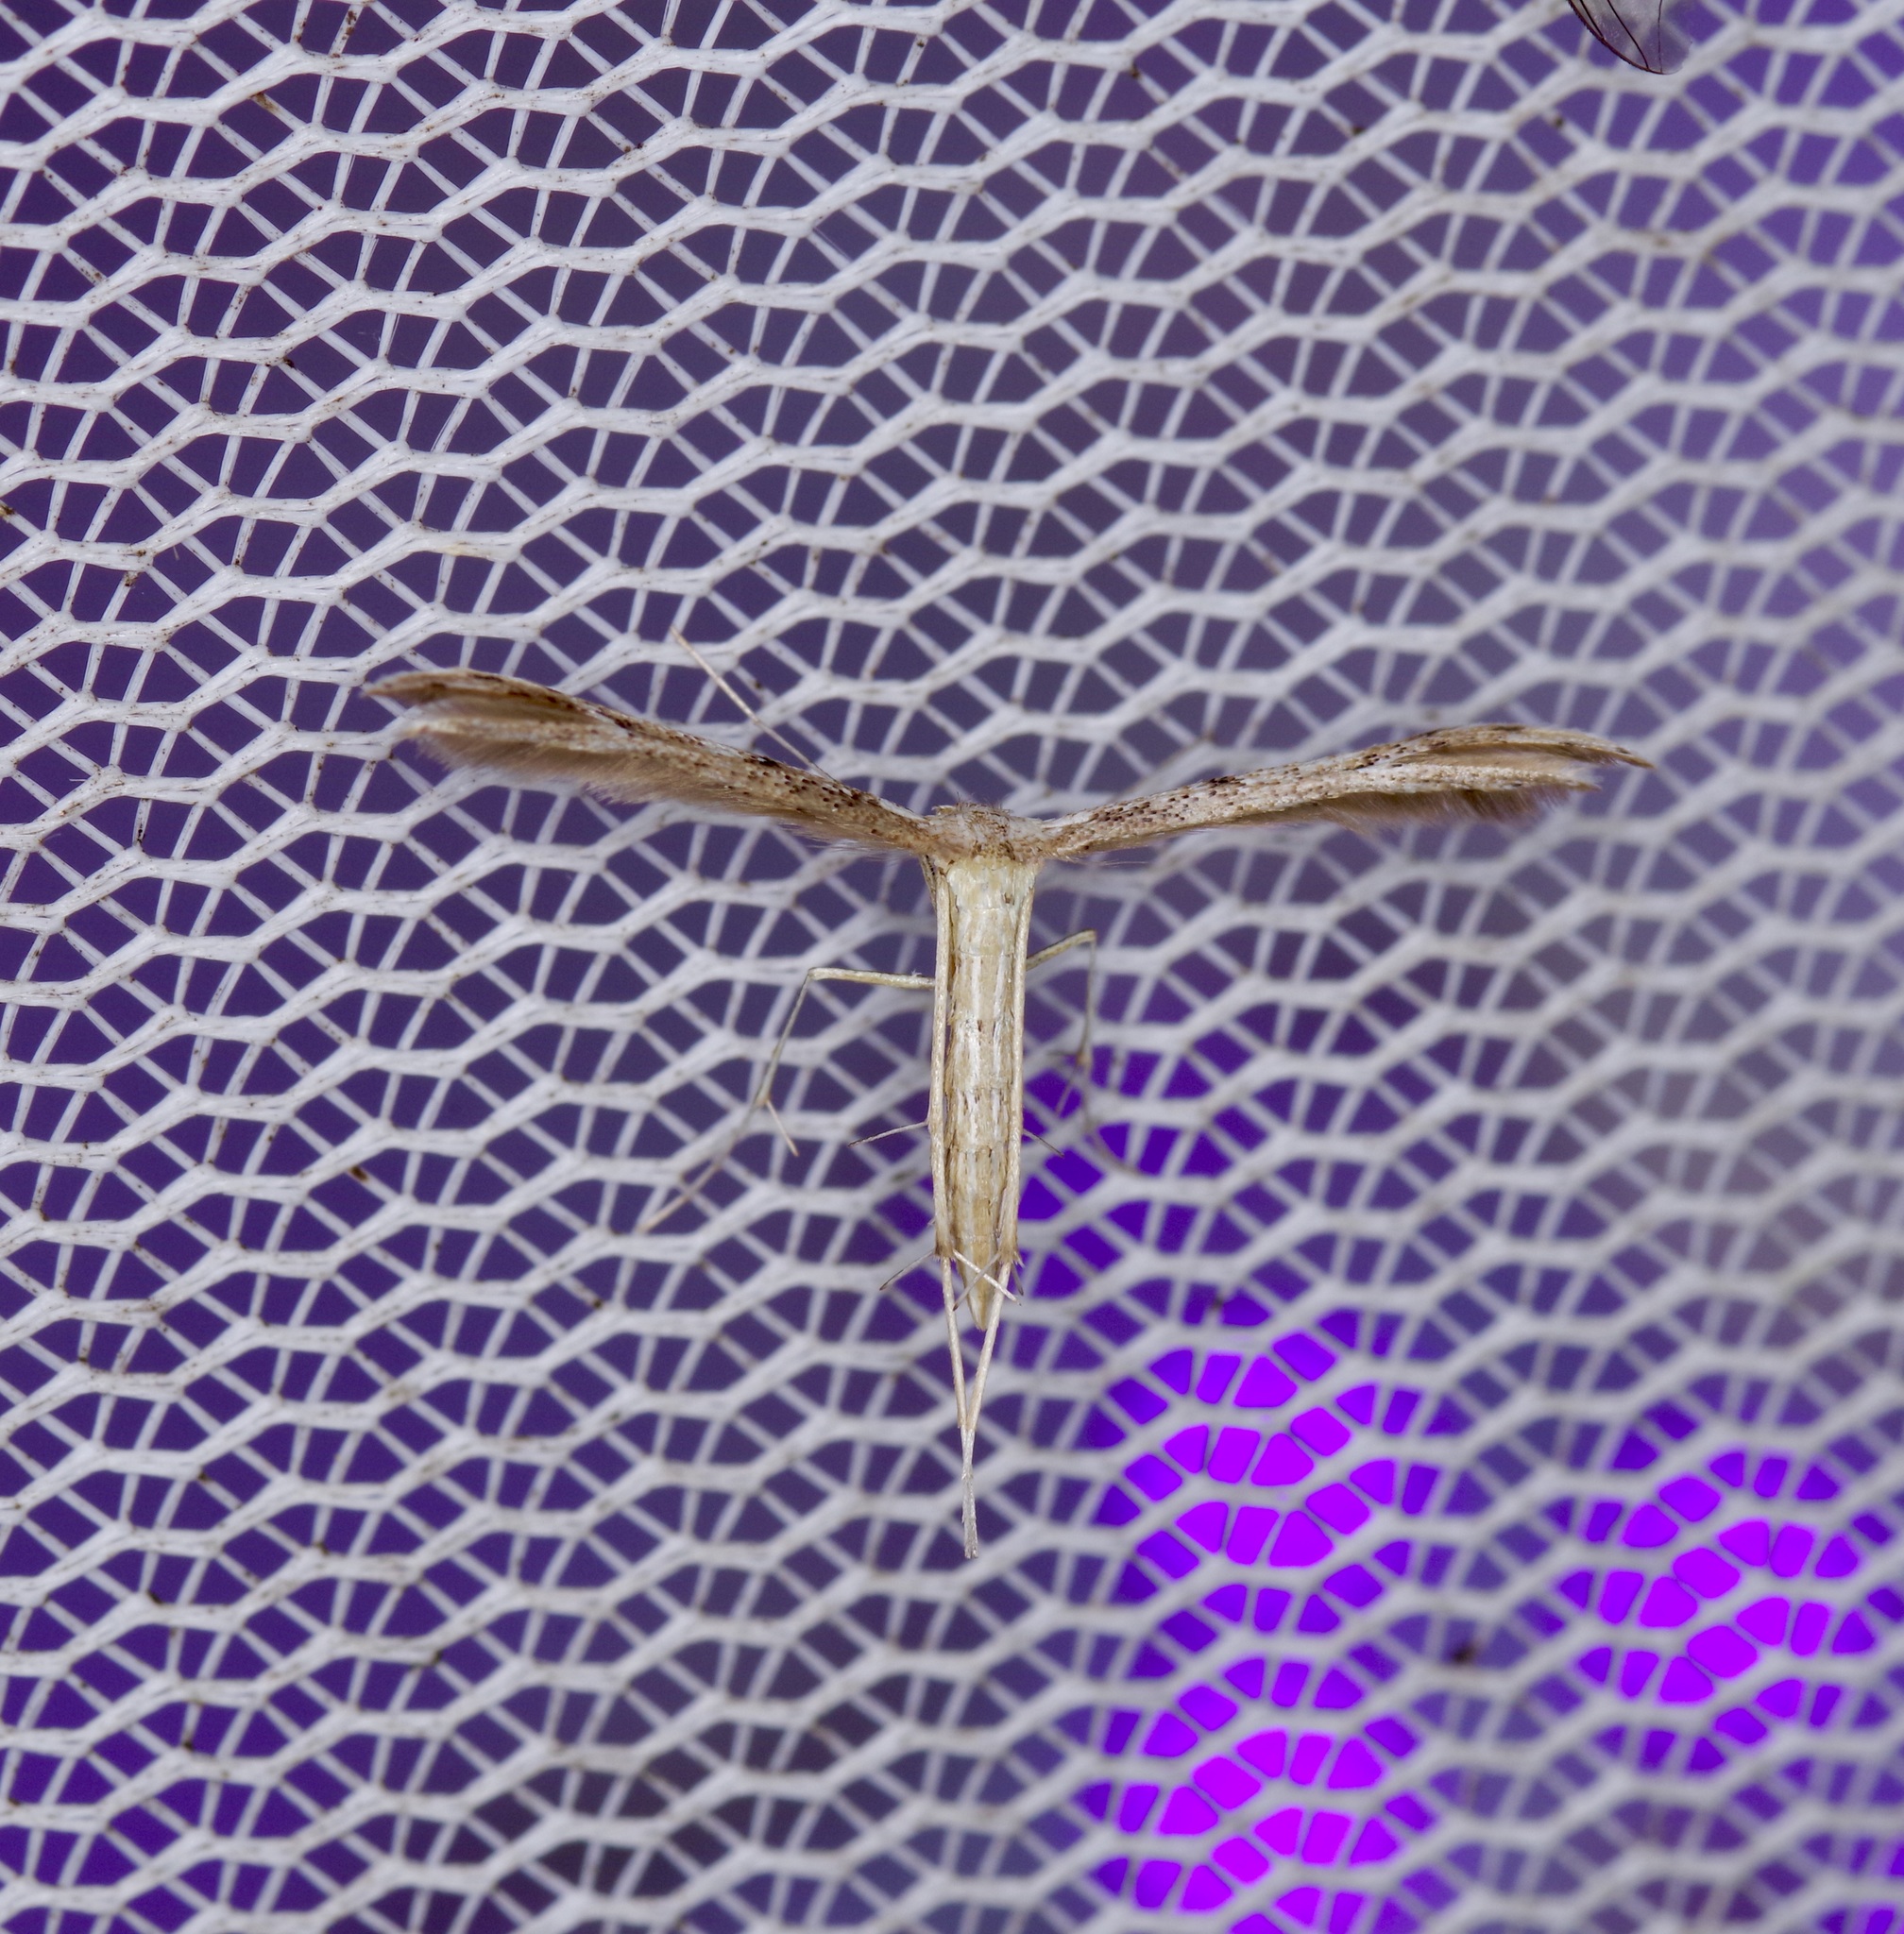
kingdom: Animalia
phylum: Arthropoda
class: Insecta
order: Lepidoptera
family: Pterophoridae
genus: Pselnophorus
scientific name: Pselnophorus belfragei
